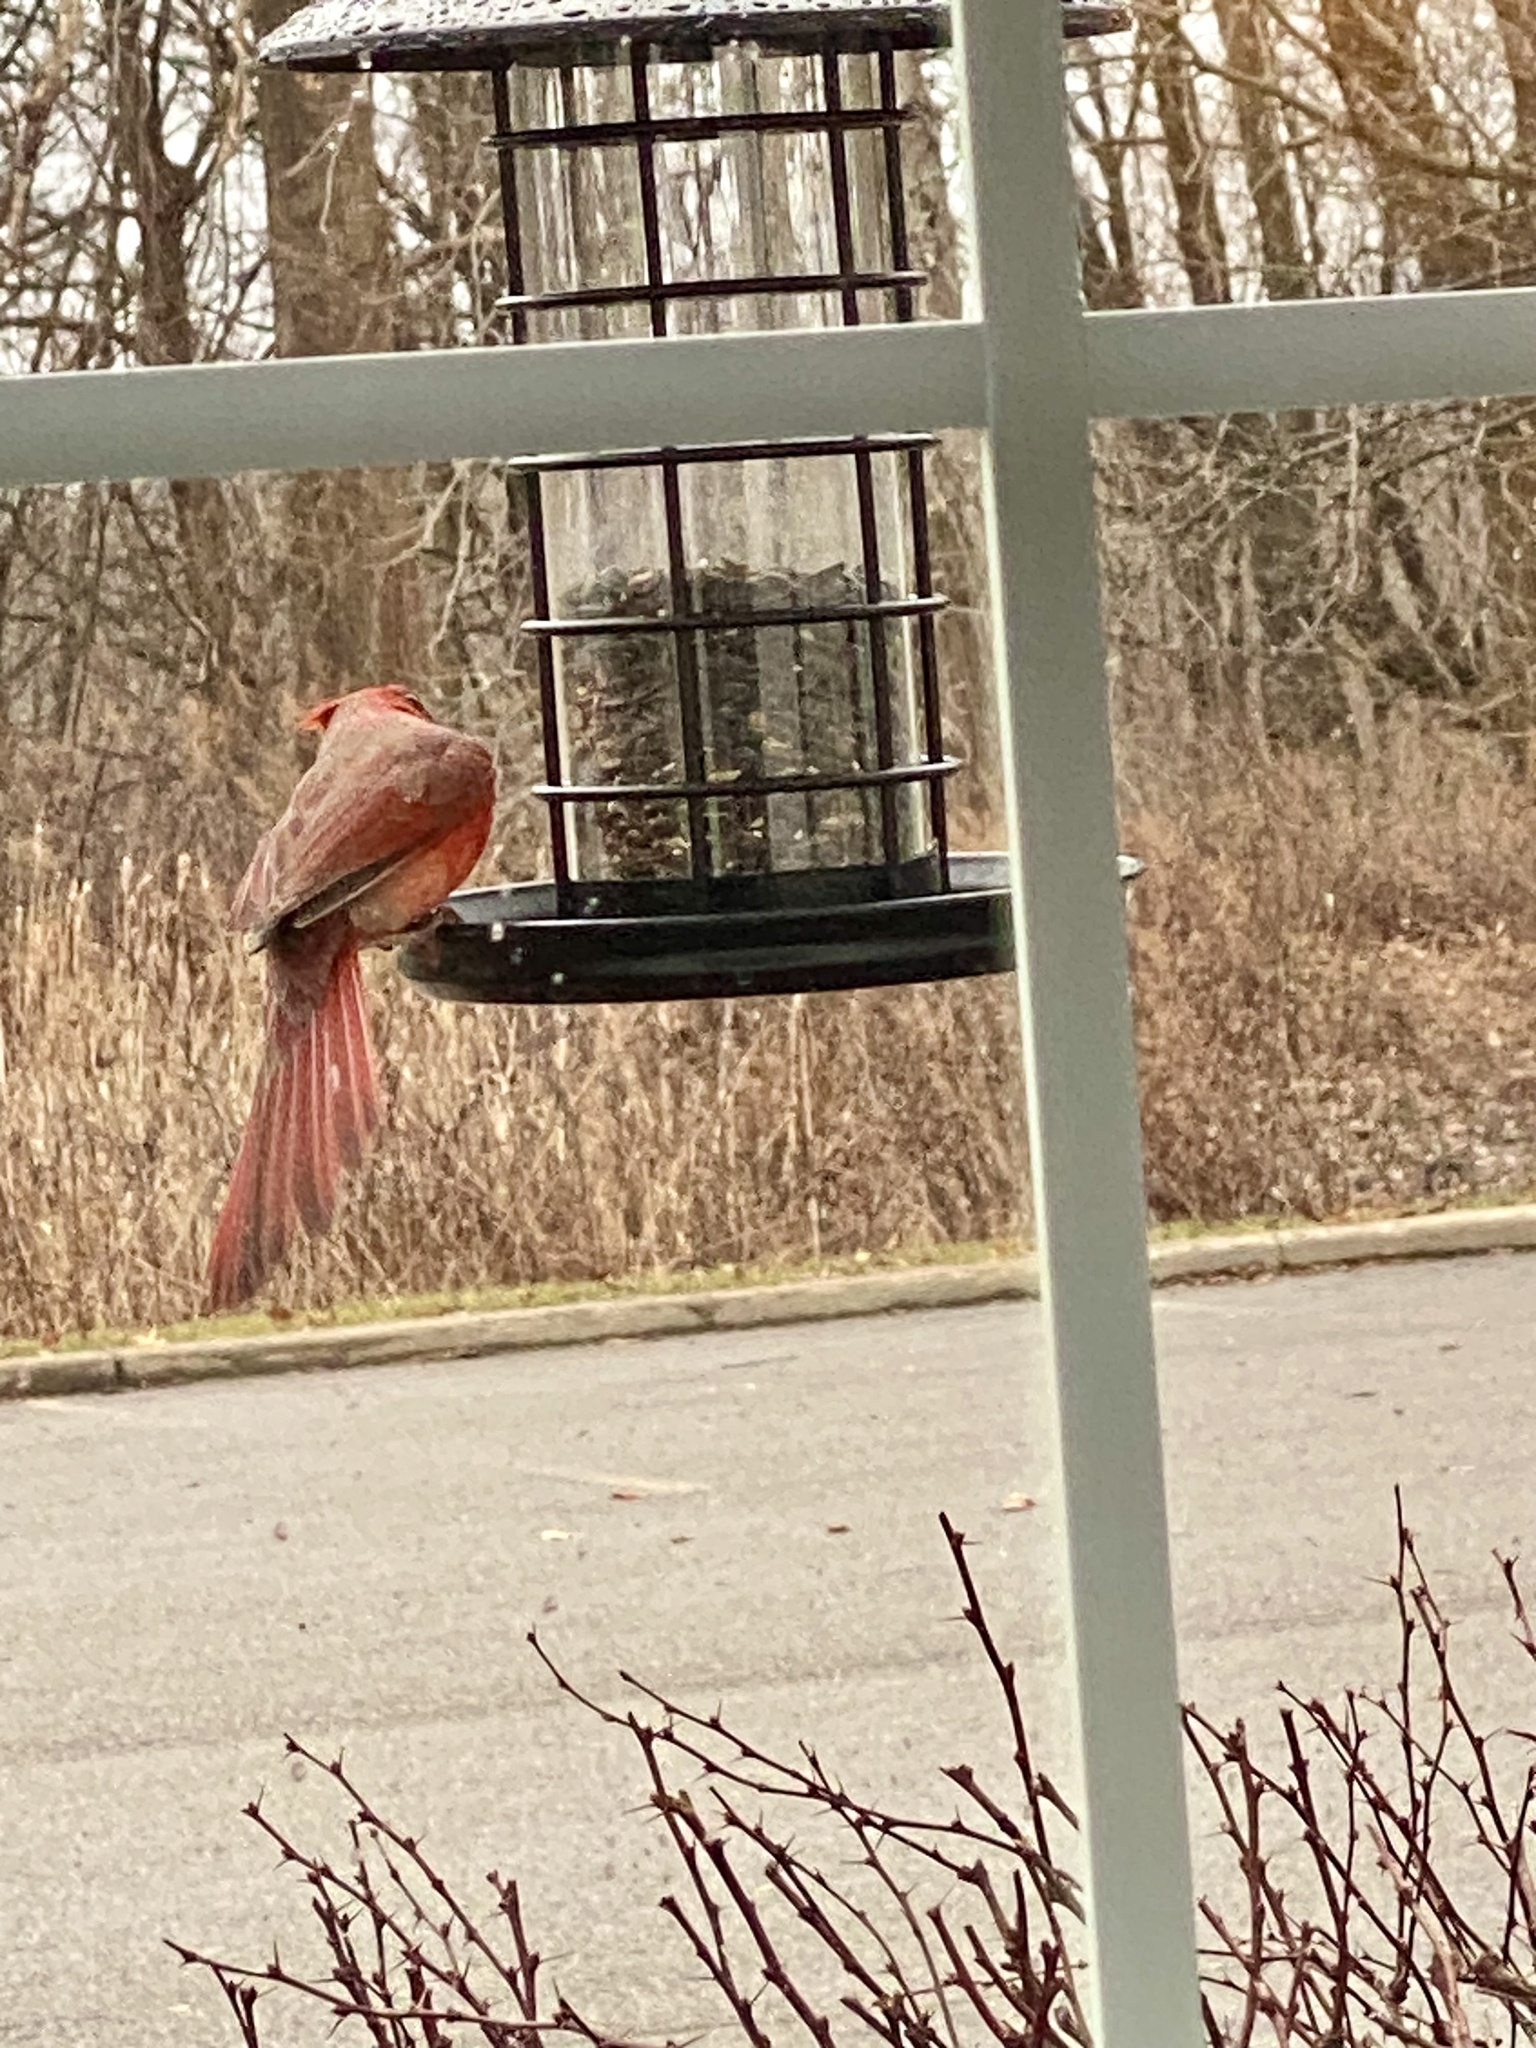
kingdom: Animalia
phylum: Chordata
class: Aves
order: Passeriformes
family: Cardinalidae
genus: Cardinalis
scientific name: Cardinalis cardinalis
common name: Northern cardinal
